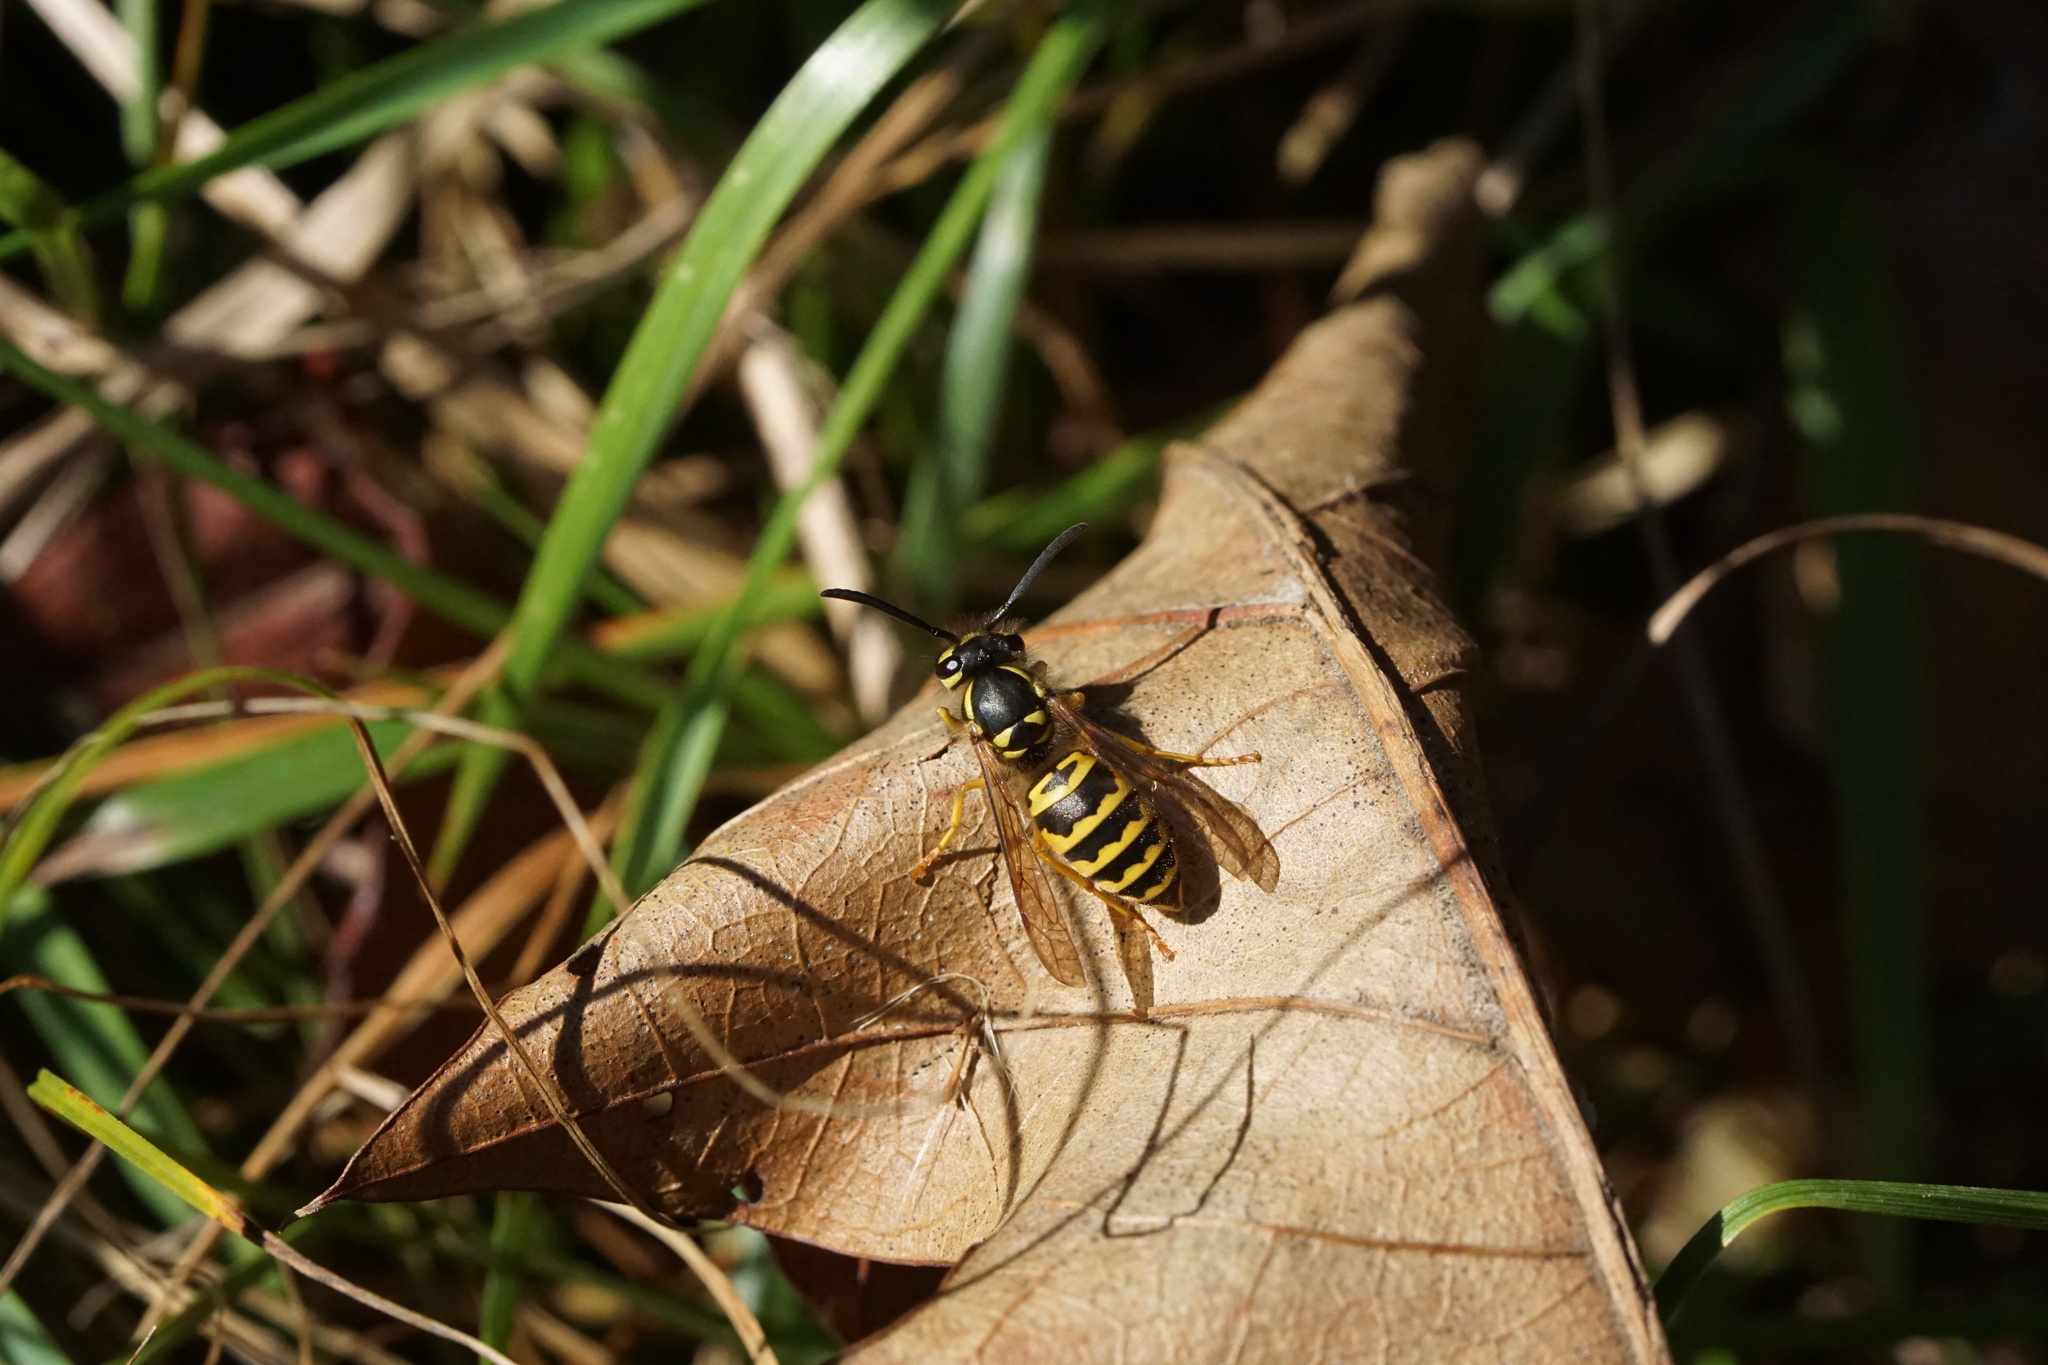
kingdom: Animalia
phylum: Arthropoda
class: Insecta
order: Hymenoptera
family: Vespidae
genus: Vespula
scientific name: Vespula maculifrons
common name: Eastern yellowjacket
